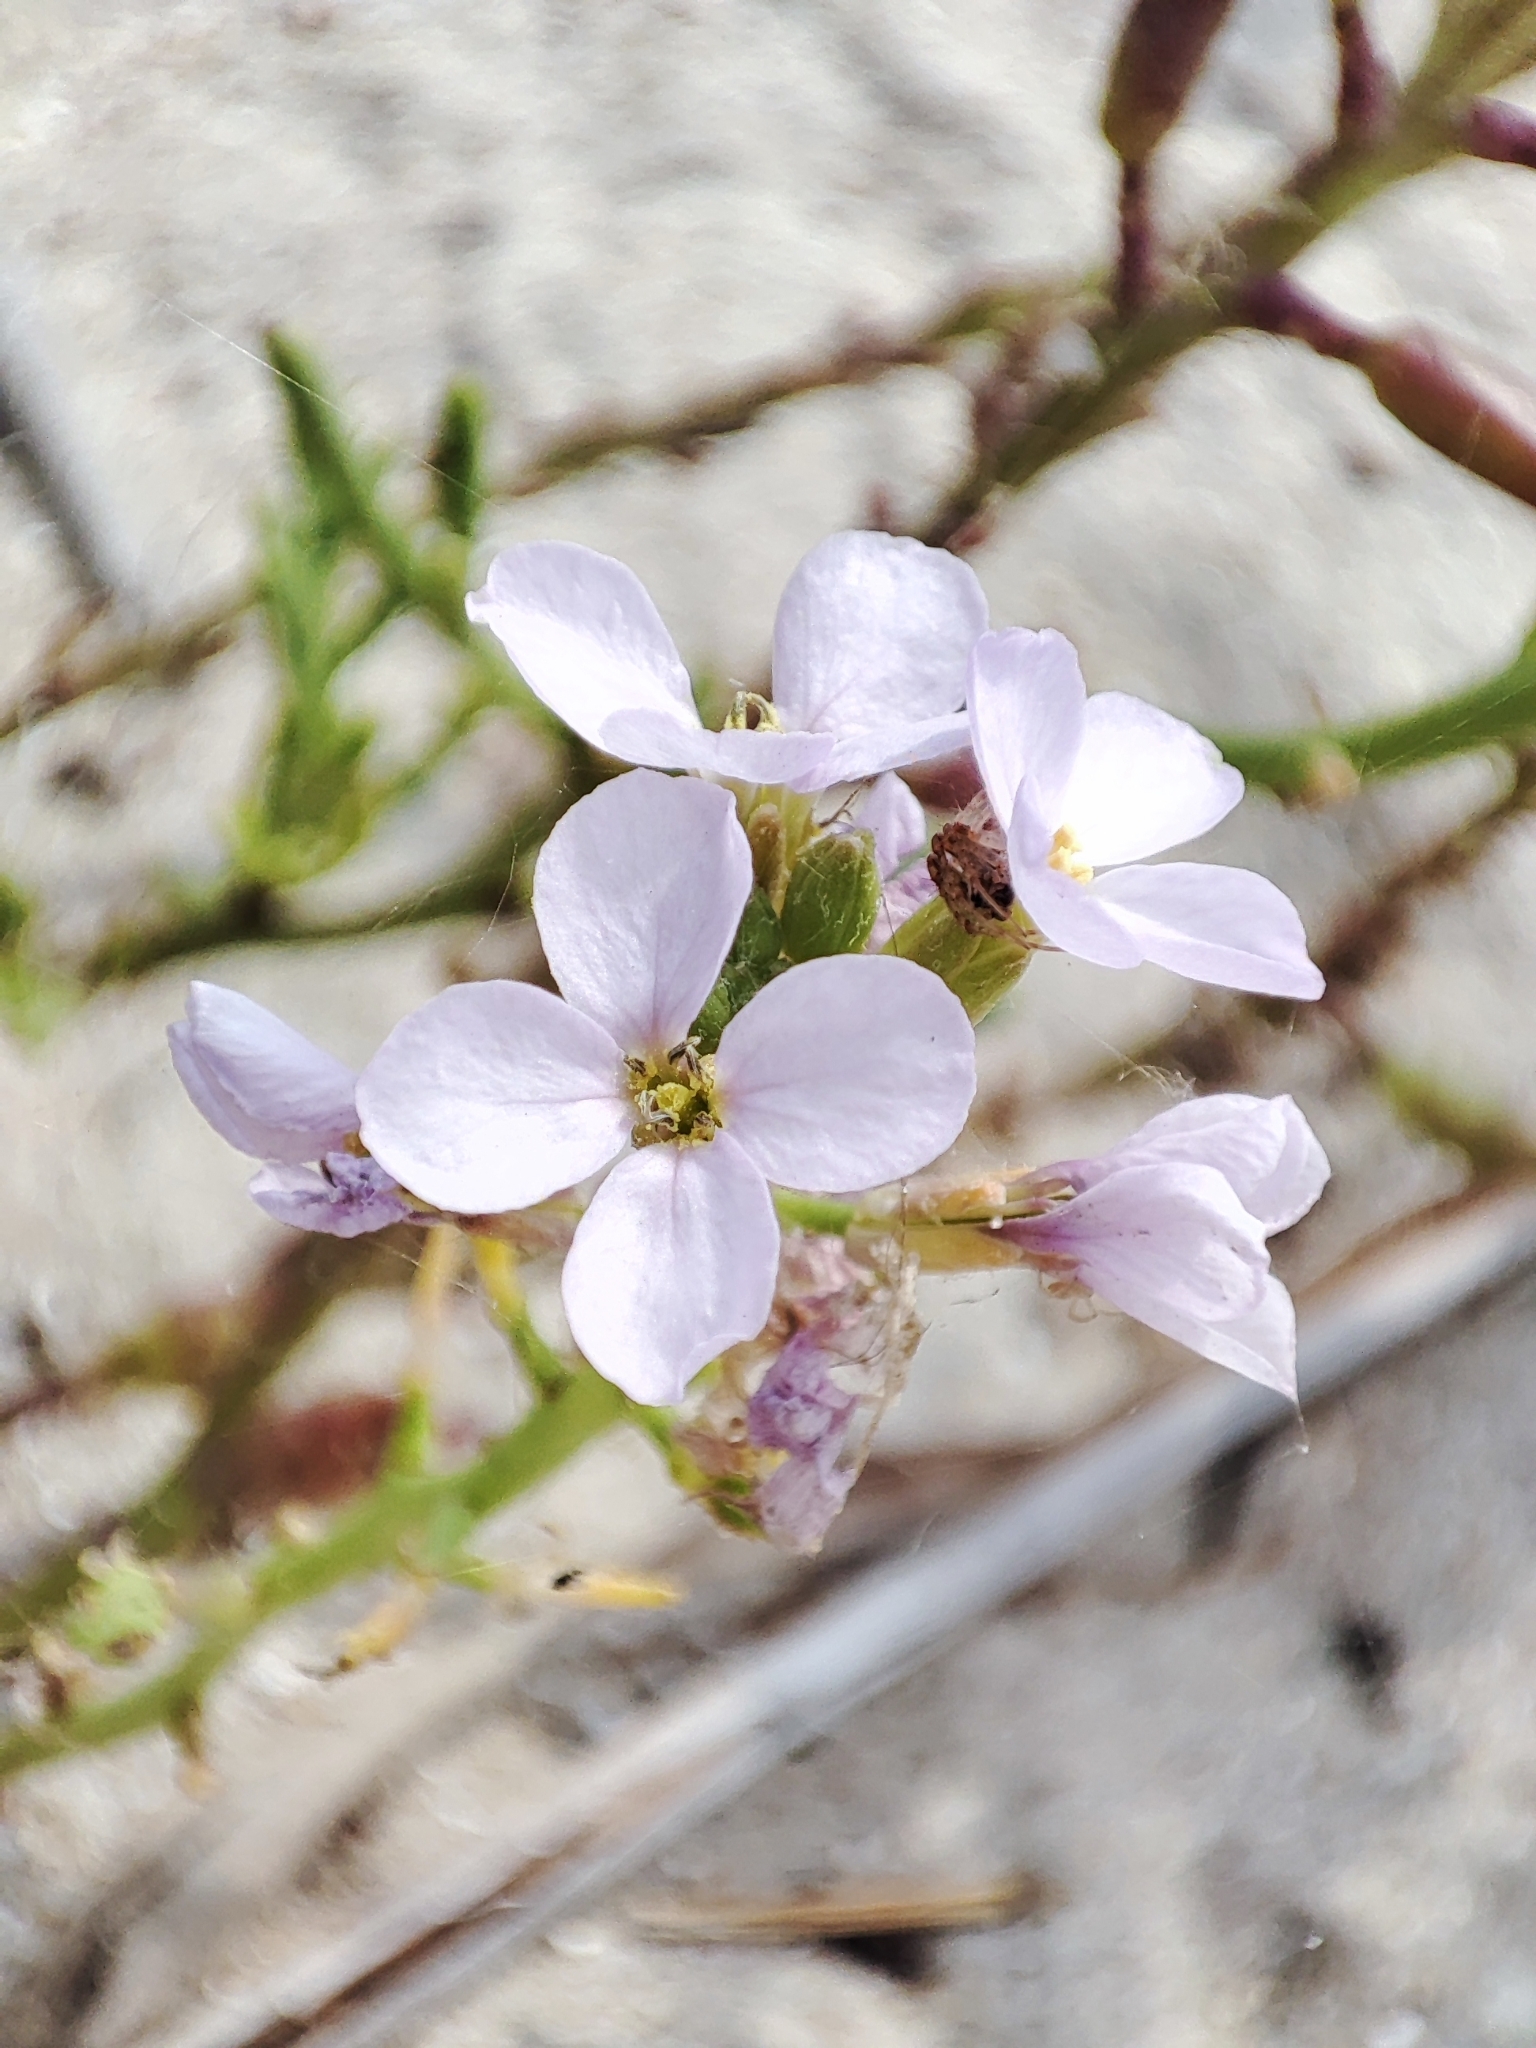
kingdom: Plantae
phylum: Tracheophyta
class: Magnoliopsida
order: Brassicales
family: Brassicaceae
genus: Cakile
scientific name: Cakile maritima
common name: Sea rocket
